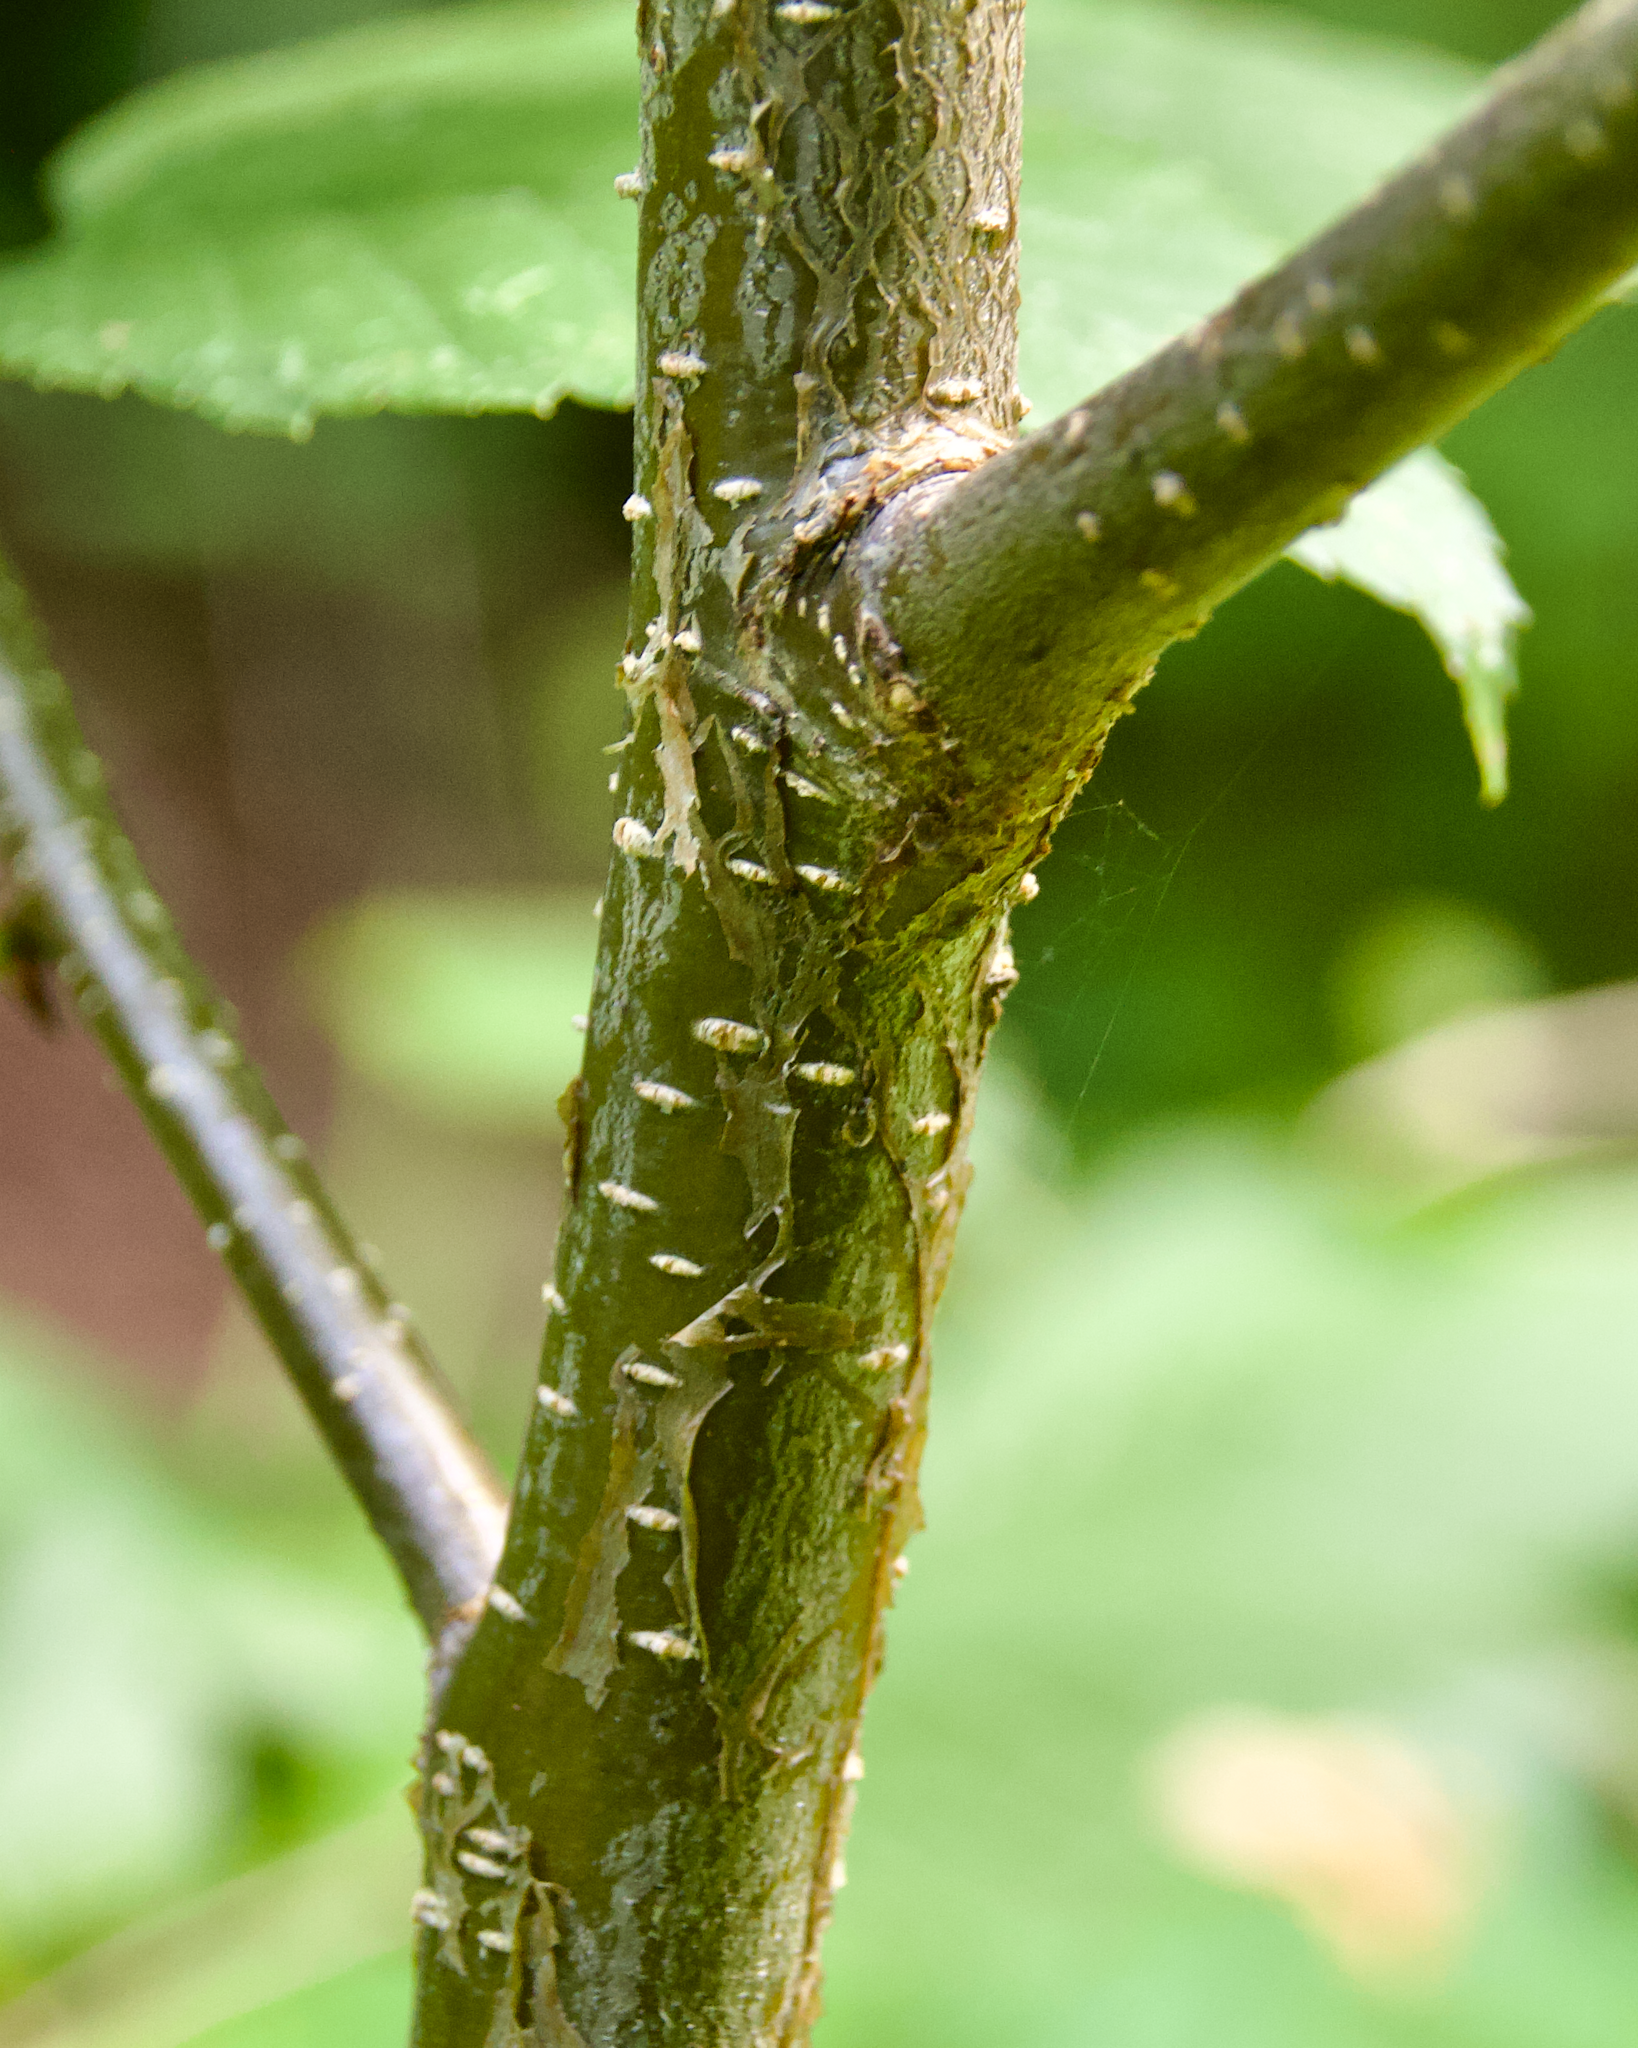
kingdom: Plantae
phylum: Tracheophyta
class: Magnoliopsida
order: Fagales
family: Betulaceae
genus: Betula
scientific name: Betula alleghaniensis
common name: Yellow birch
